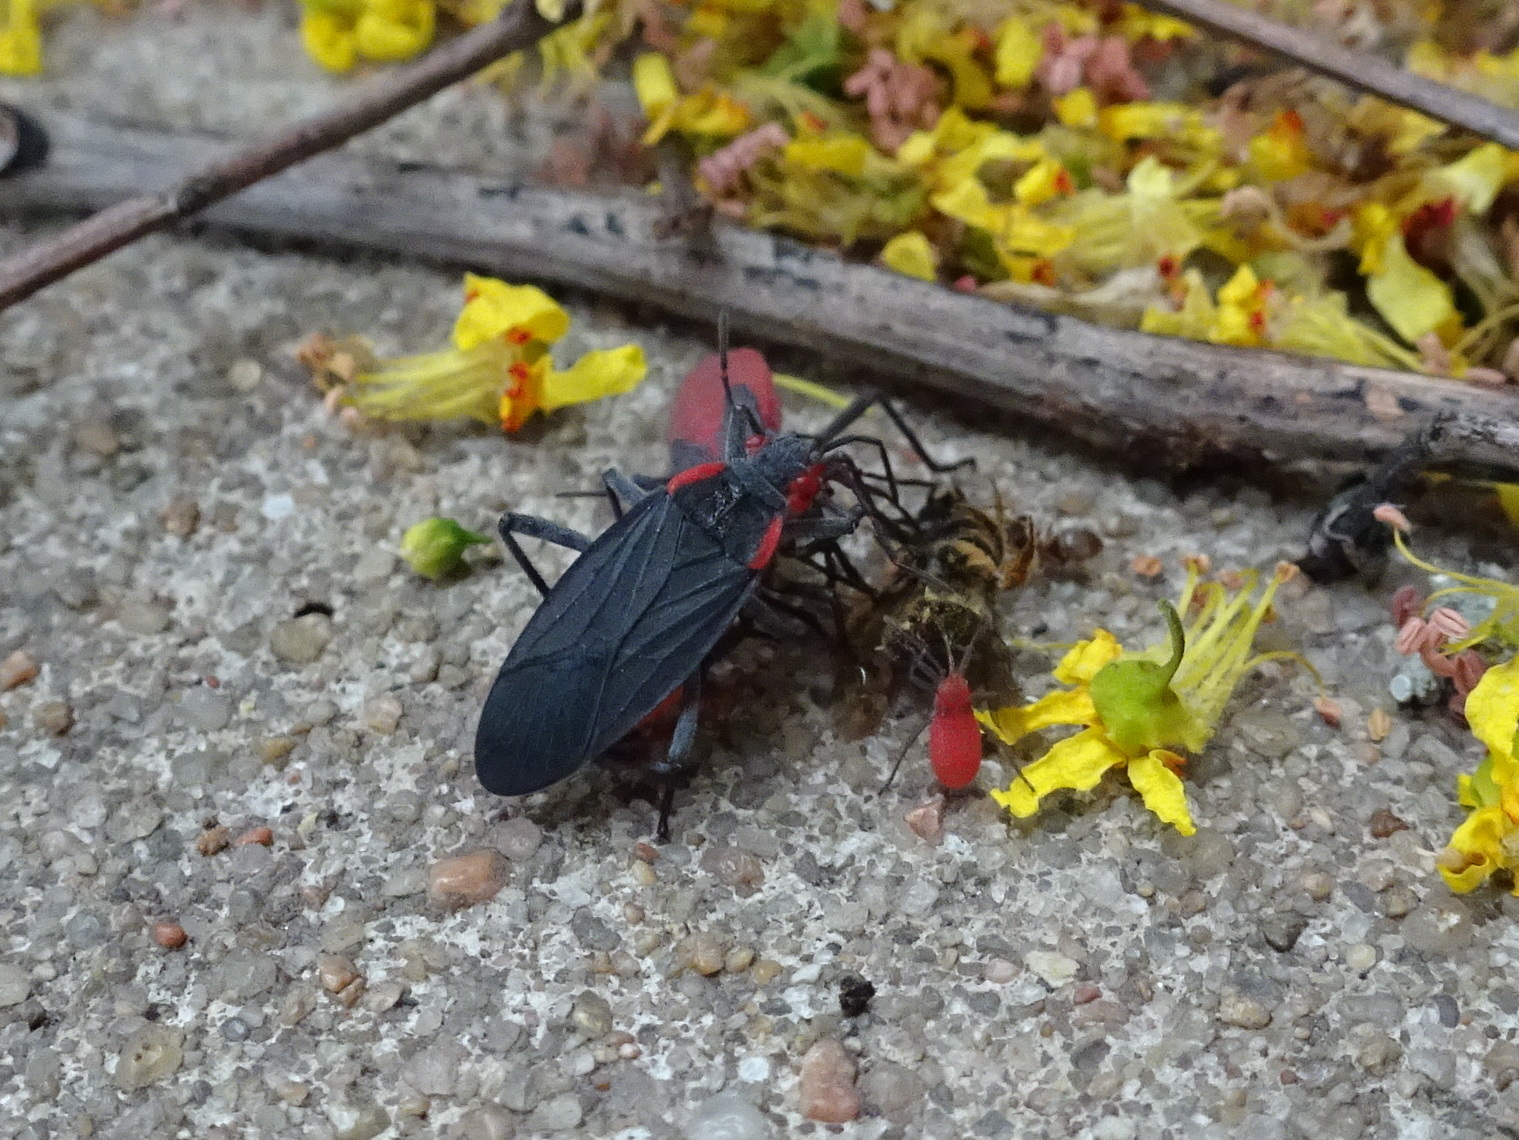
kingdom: Animalia
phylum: Arthropoda
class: Insecta
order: Hemiptera
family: Rhopalidae
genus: Jadera
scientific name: Jadera haematoloma
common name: Red-shouldered bug
